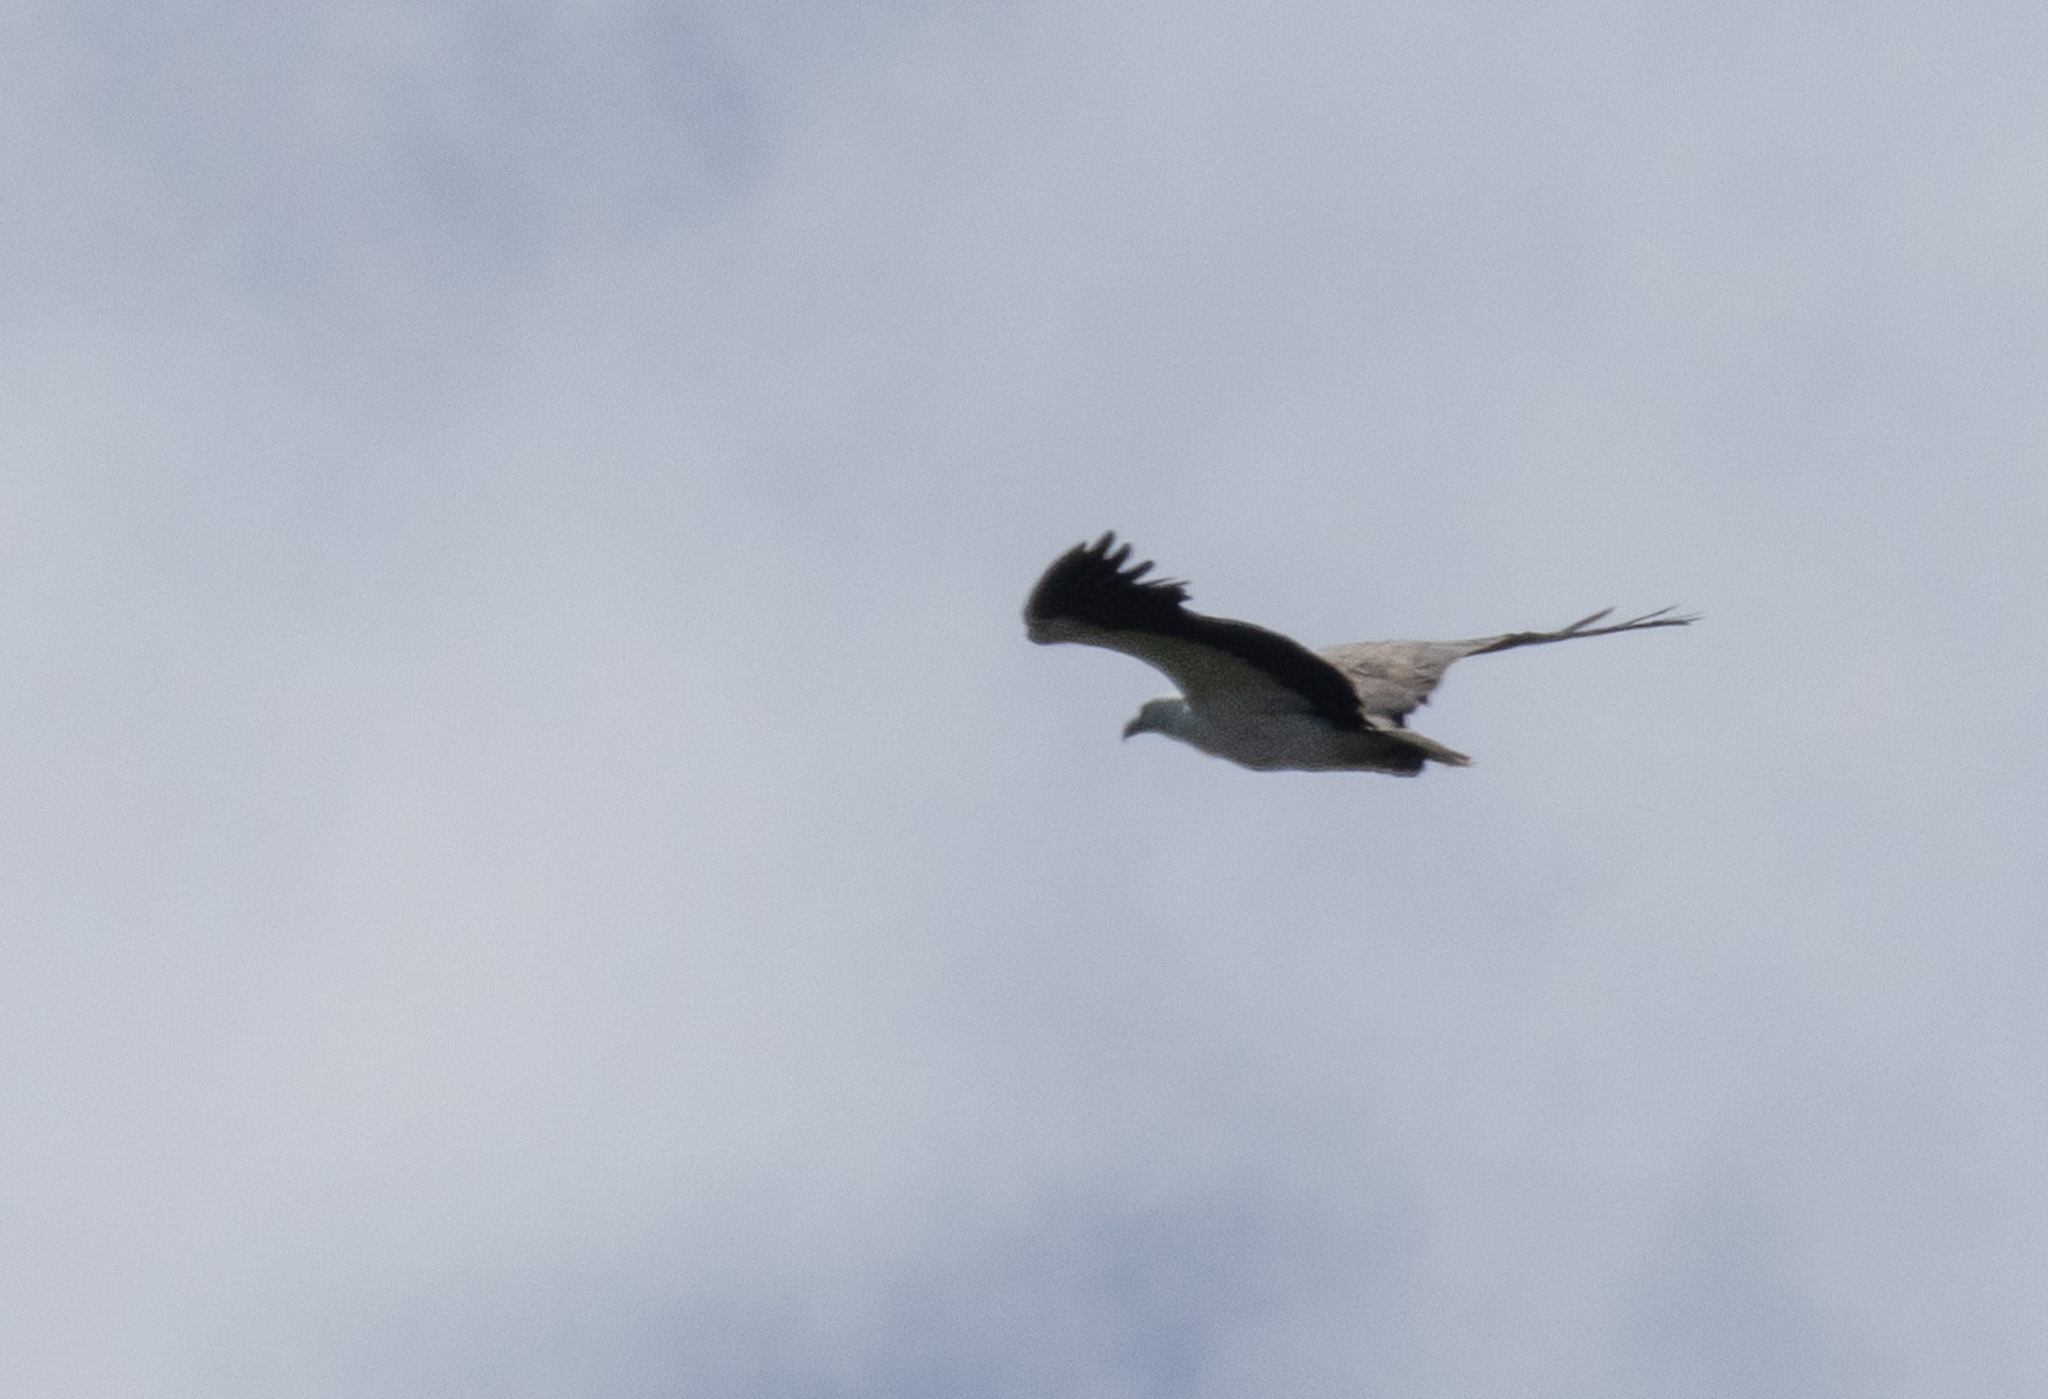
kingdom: Animalia
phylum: Chordata
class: Aves
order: Accipitriformes
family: Accipitridae
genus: Haliaeetus
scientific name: Haliaeetus leucogaster
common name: White-bellied sea eagle
